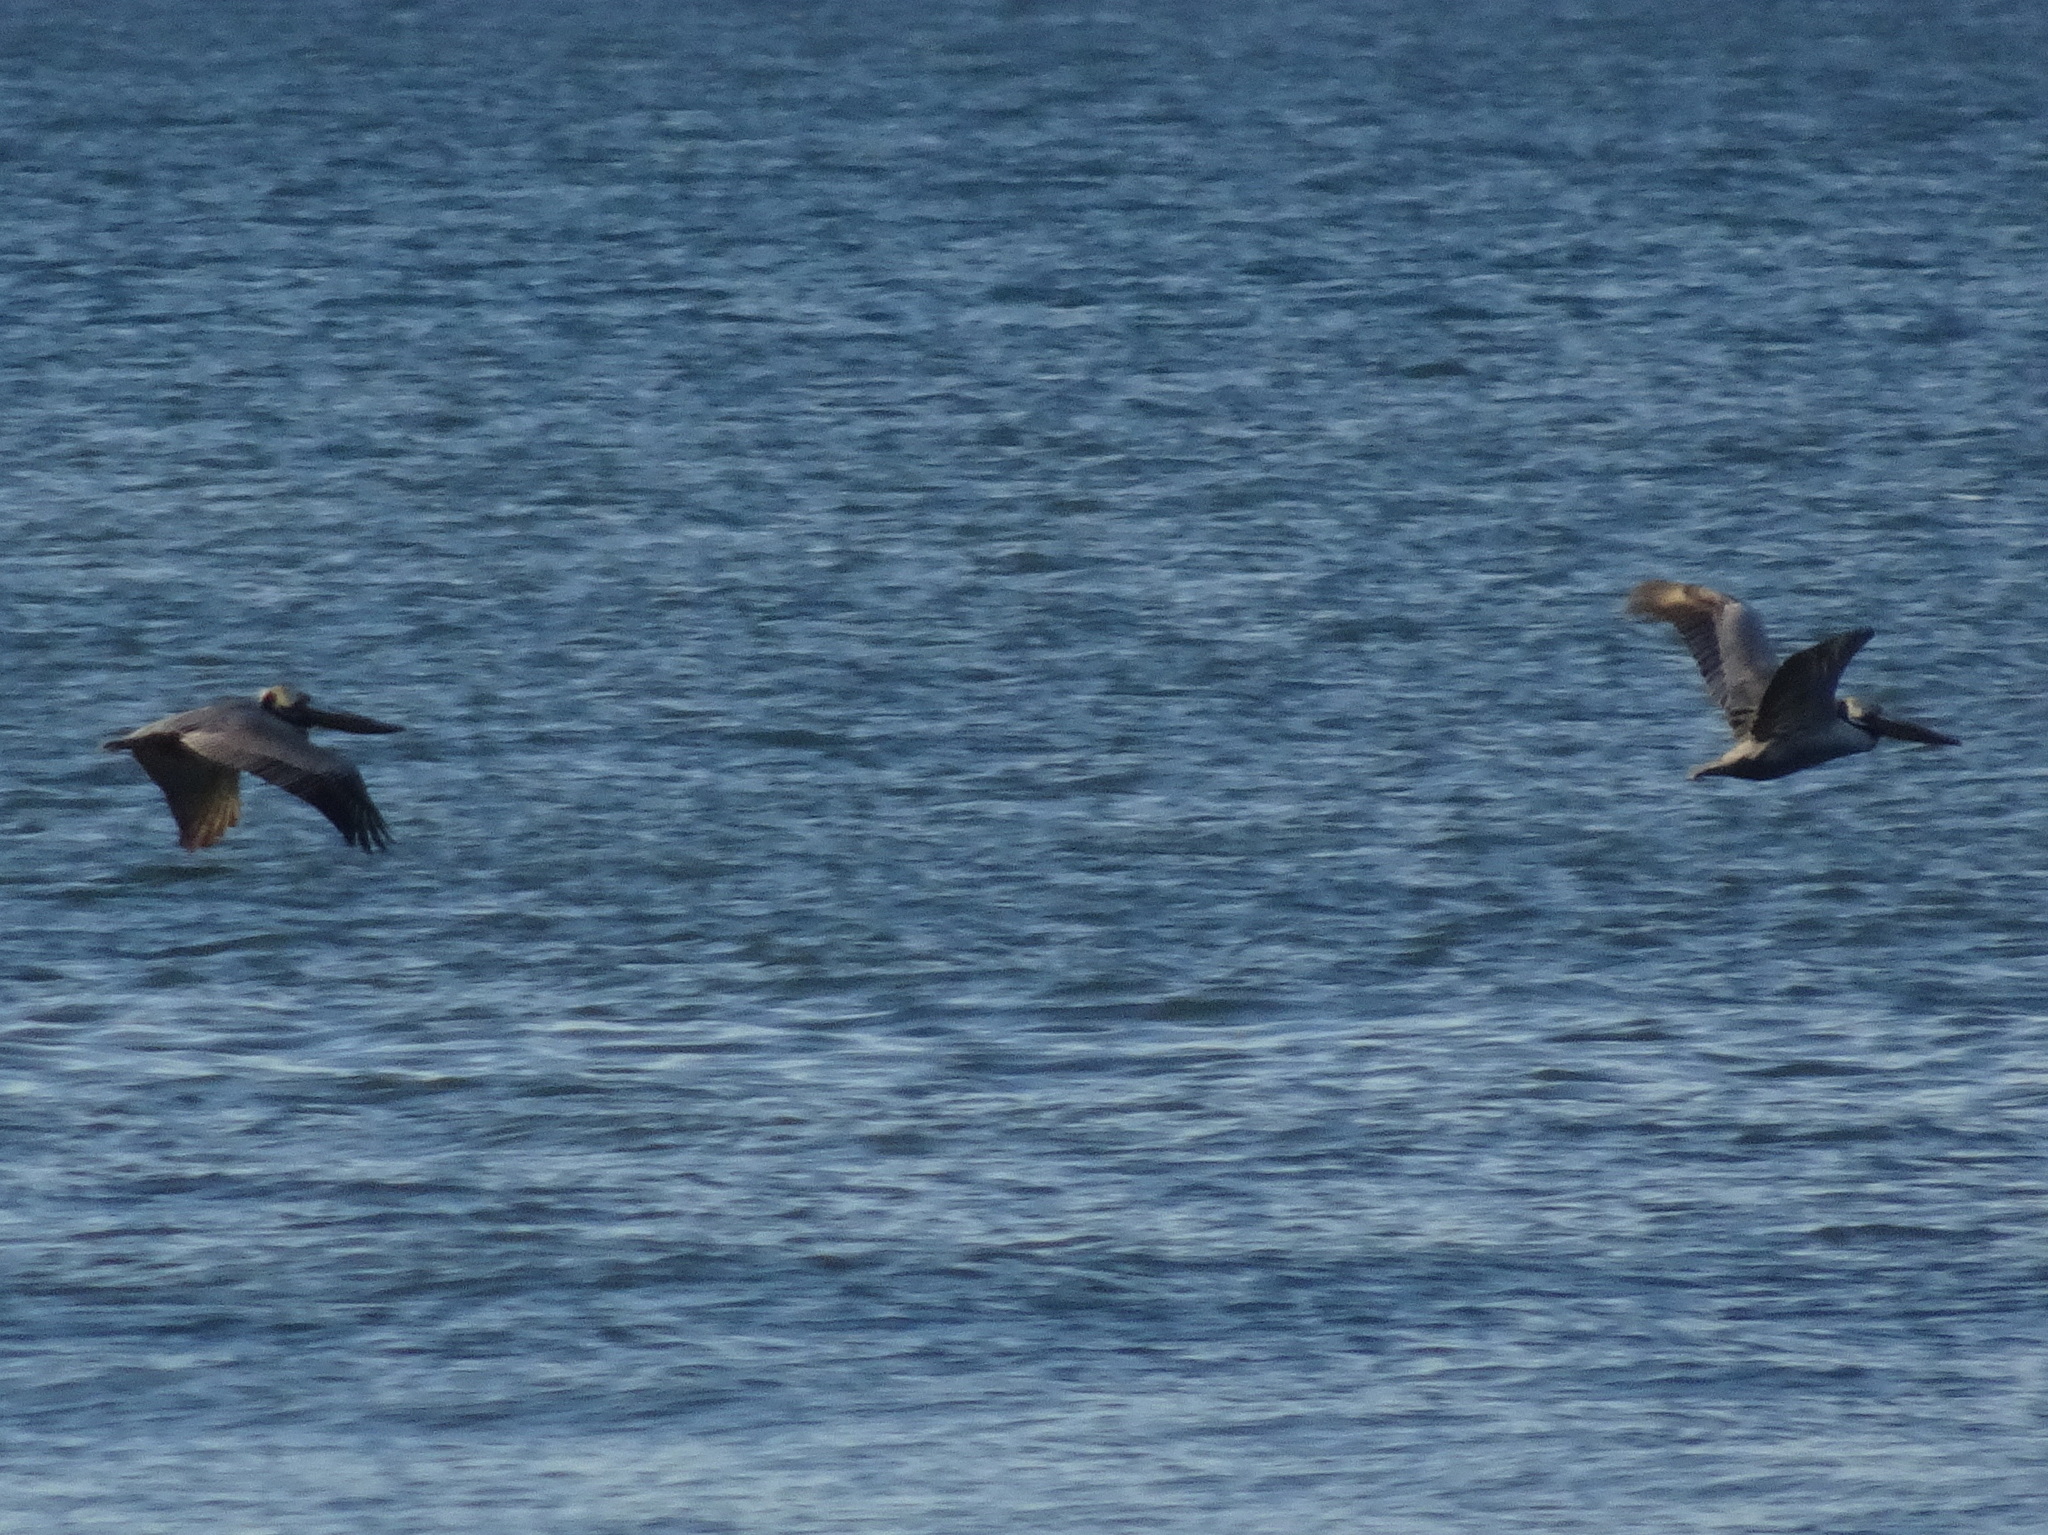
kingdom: Animalia
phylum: Chordata
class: Aves
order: Pelecaniformes
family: Pelecanidae
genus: Pelecanus
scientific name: Pelecanus occidentalis
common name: Brown pelican
